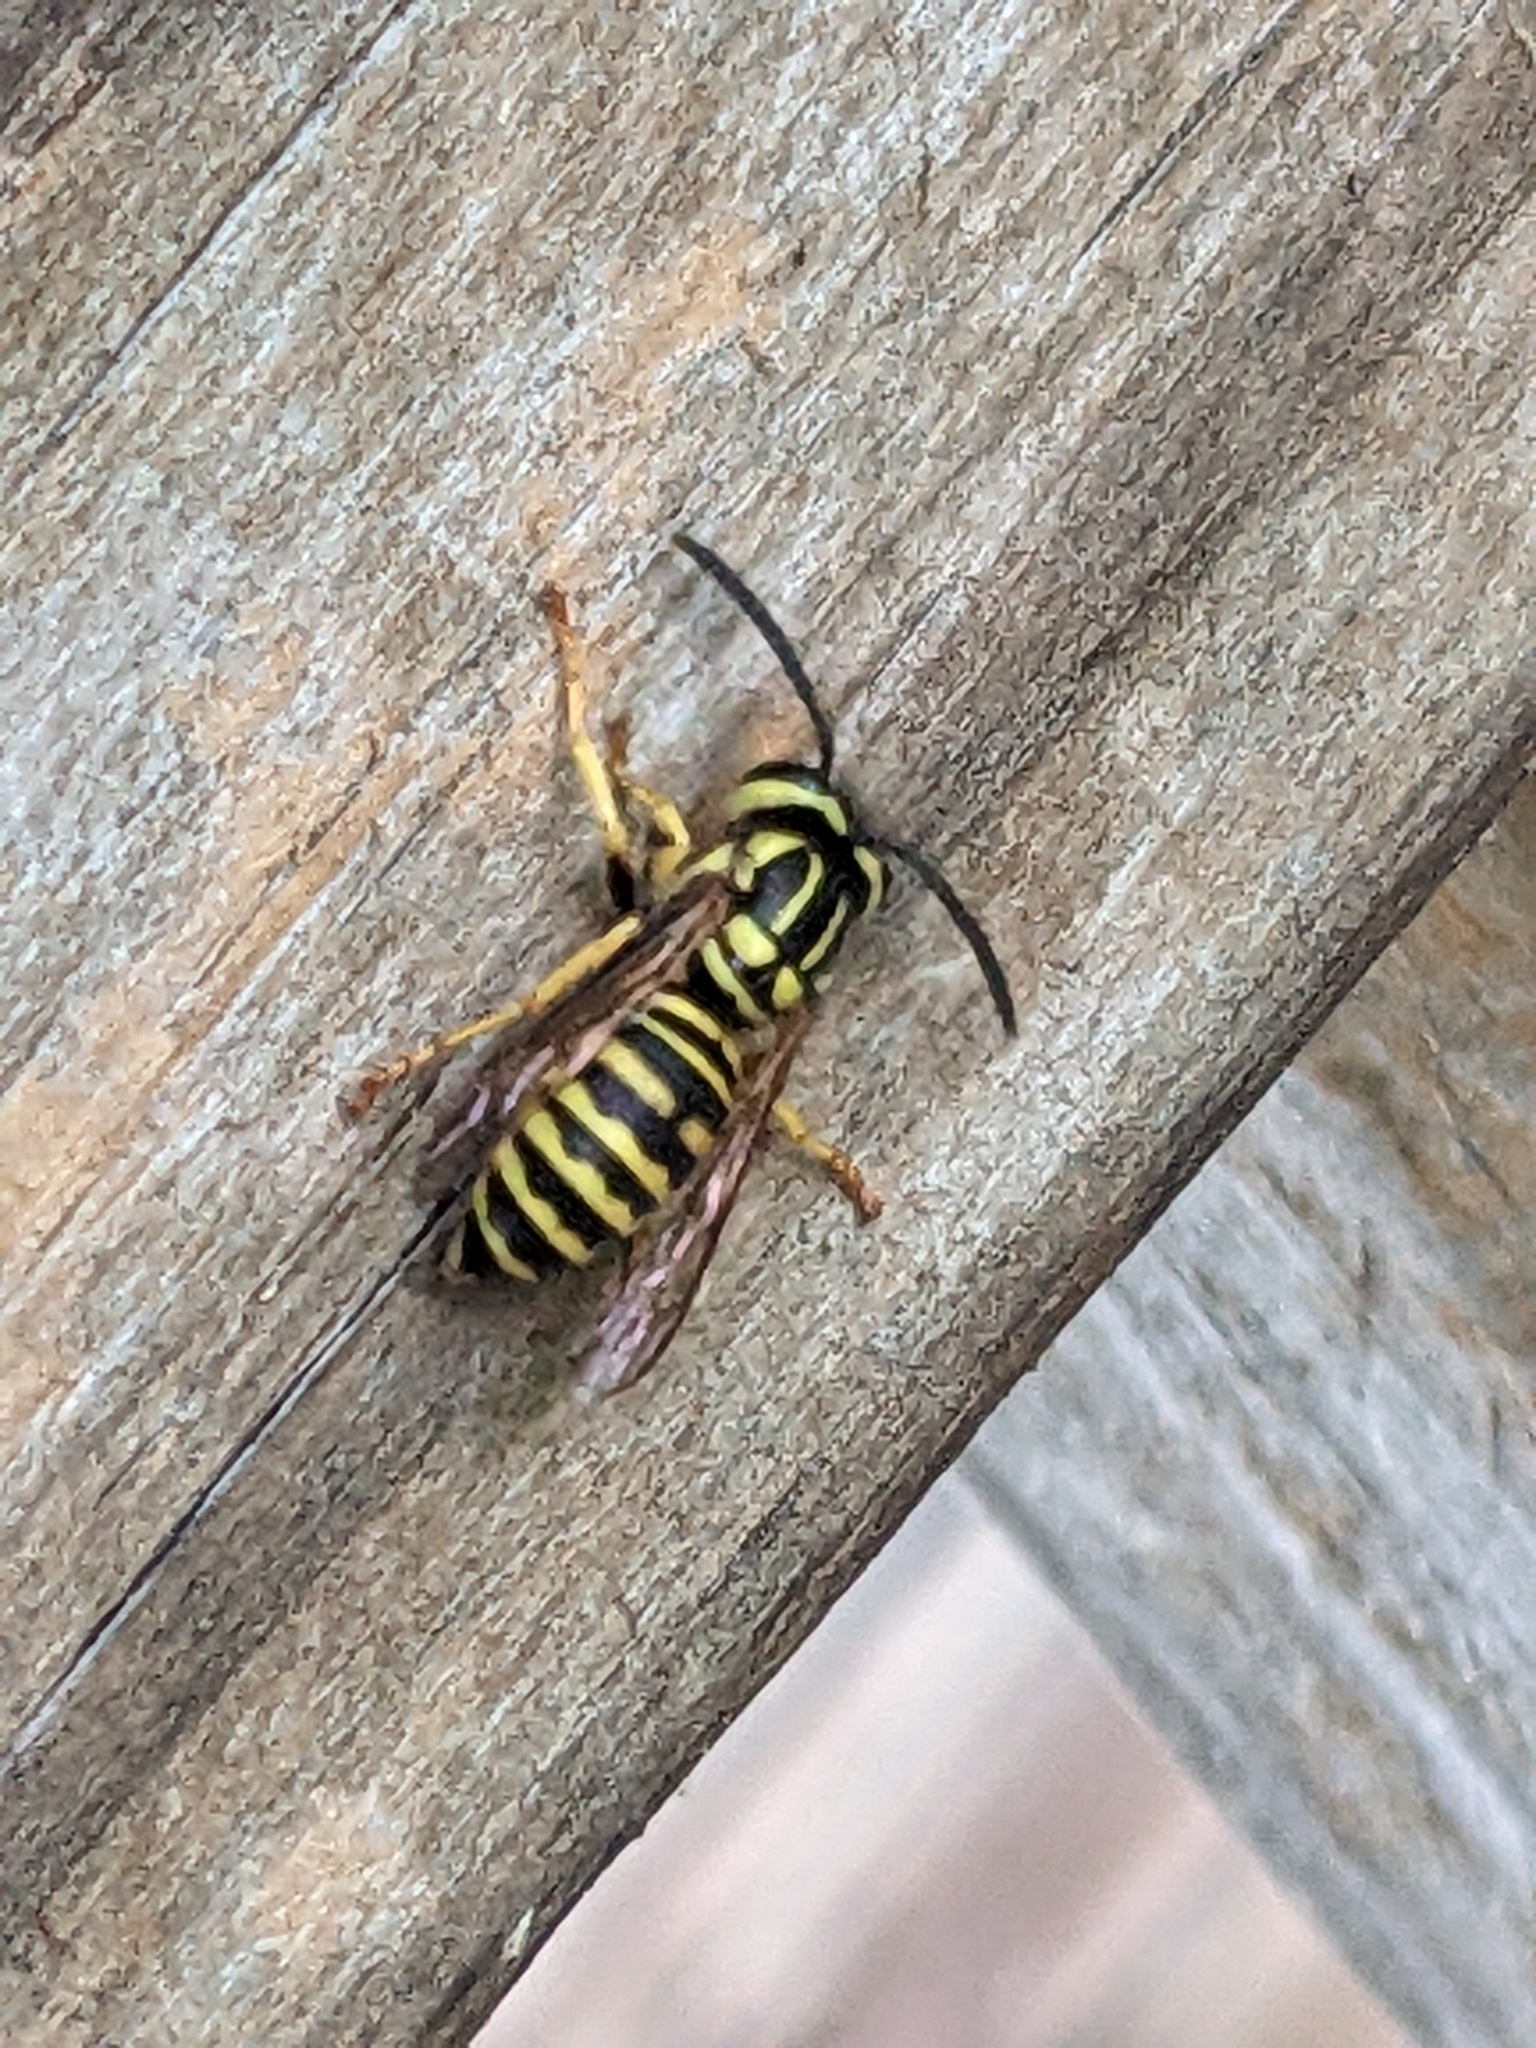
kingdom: Animalia
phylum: Arthropoda
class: Insecta
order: Hymenoptera
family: Vespidae
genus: Vespula
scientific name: Vespula squamosa
